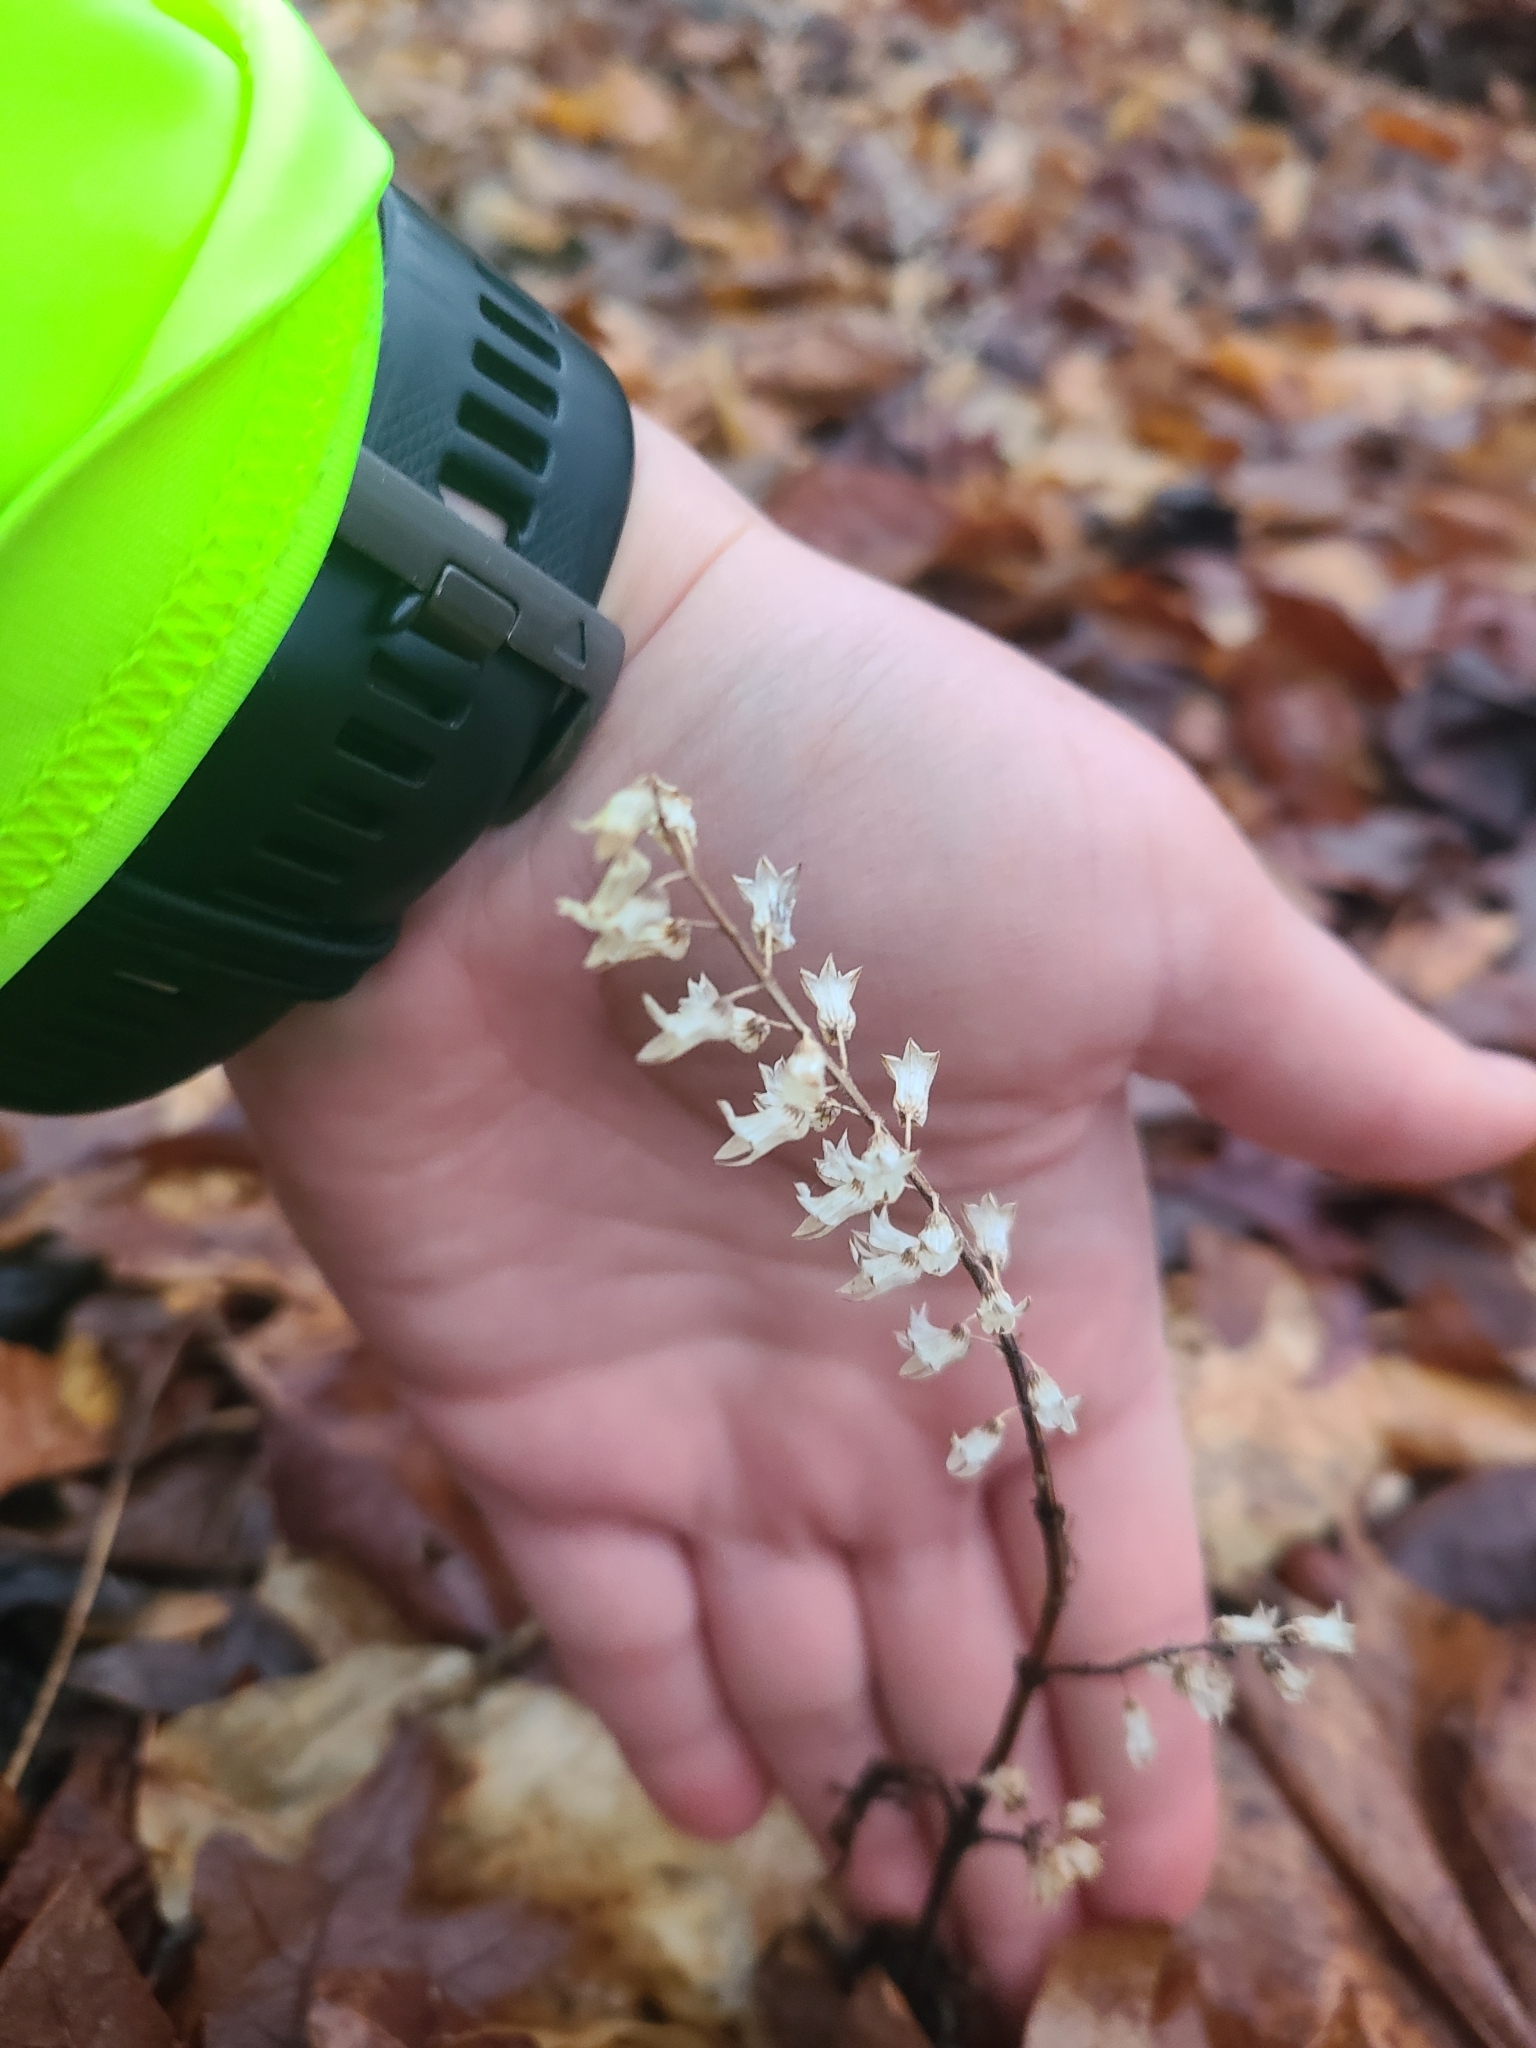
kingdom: Plantae
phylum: Tracheophyta
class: Magnoliopsida
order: Lamiales
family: Lamiaceae
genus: Perilla
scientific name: Perilla frutescens
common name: Perilla
